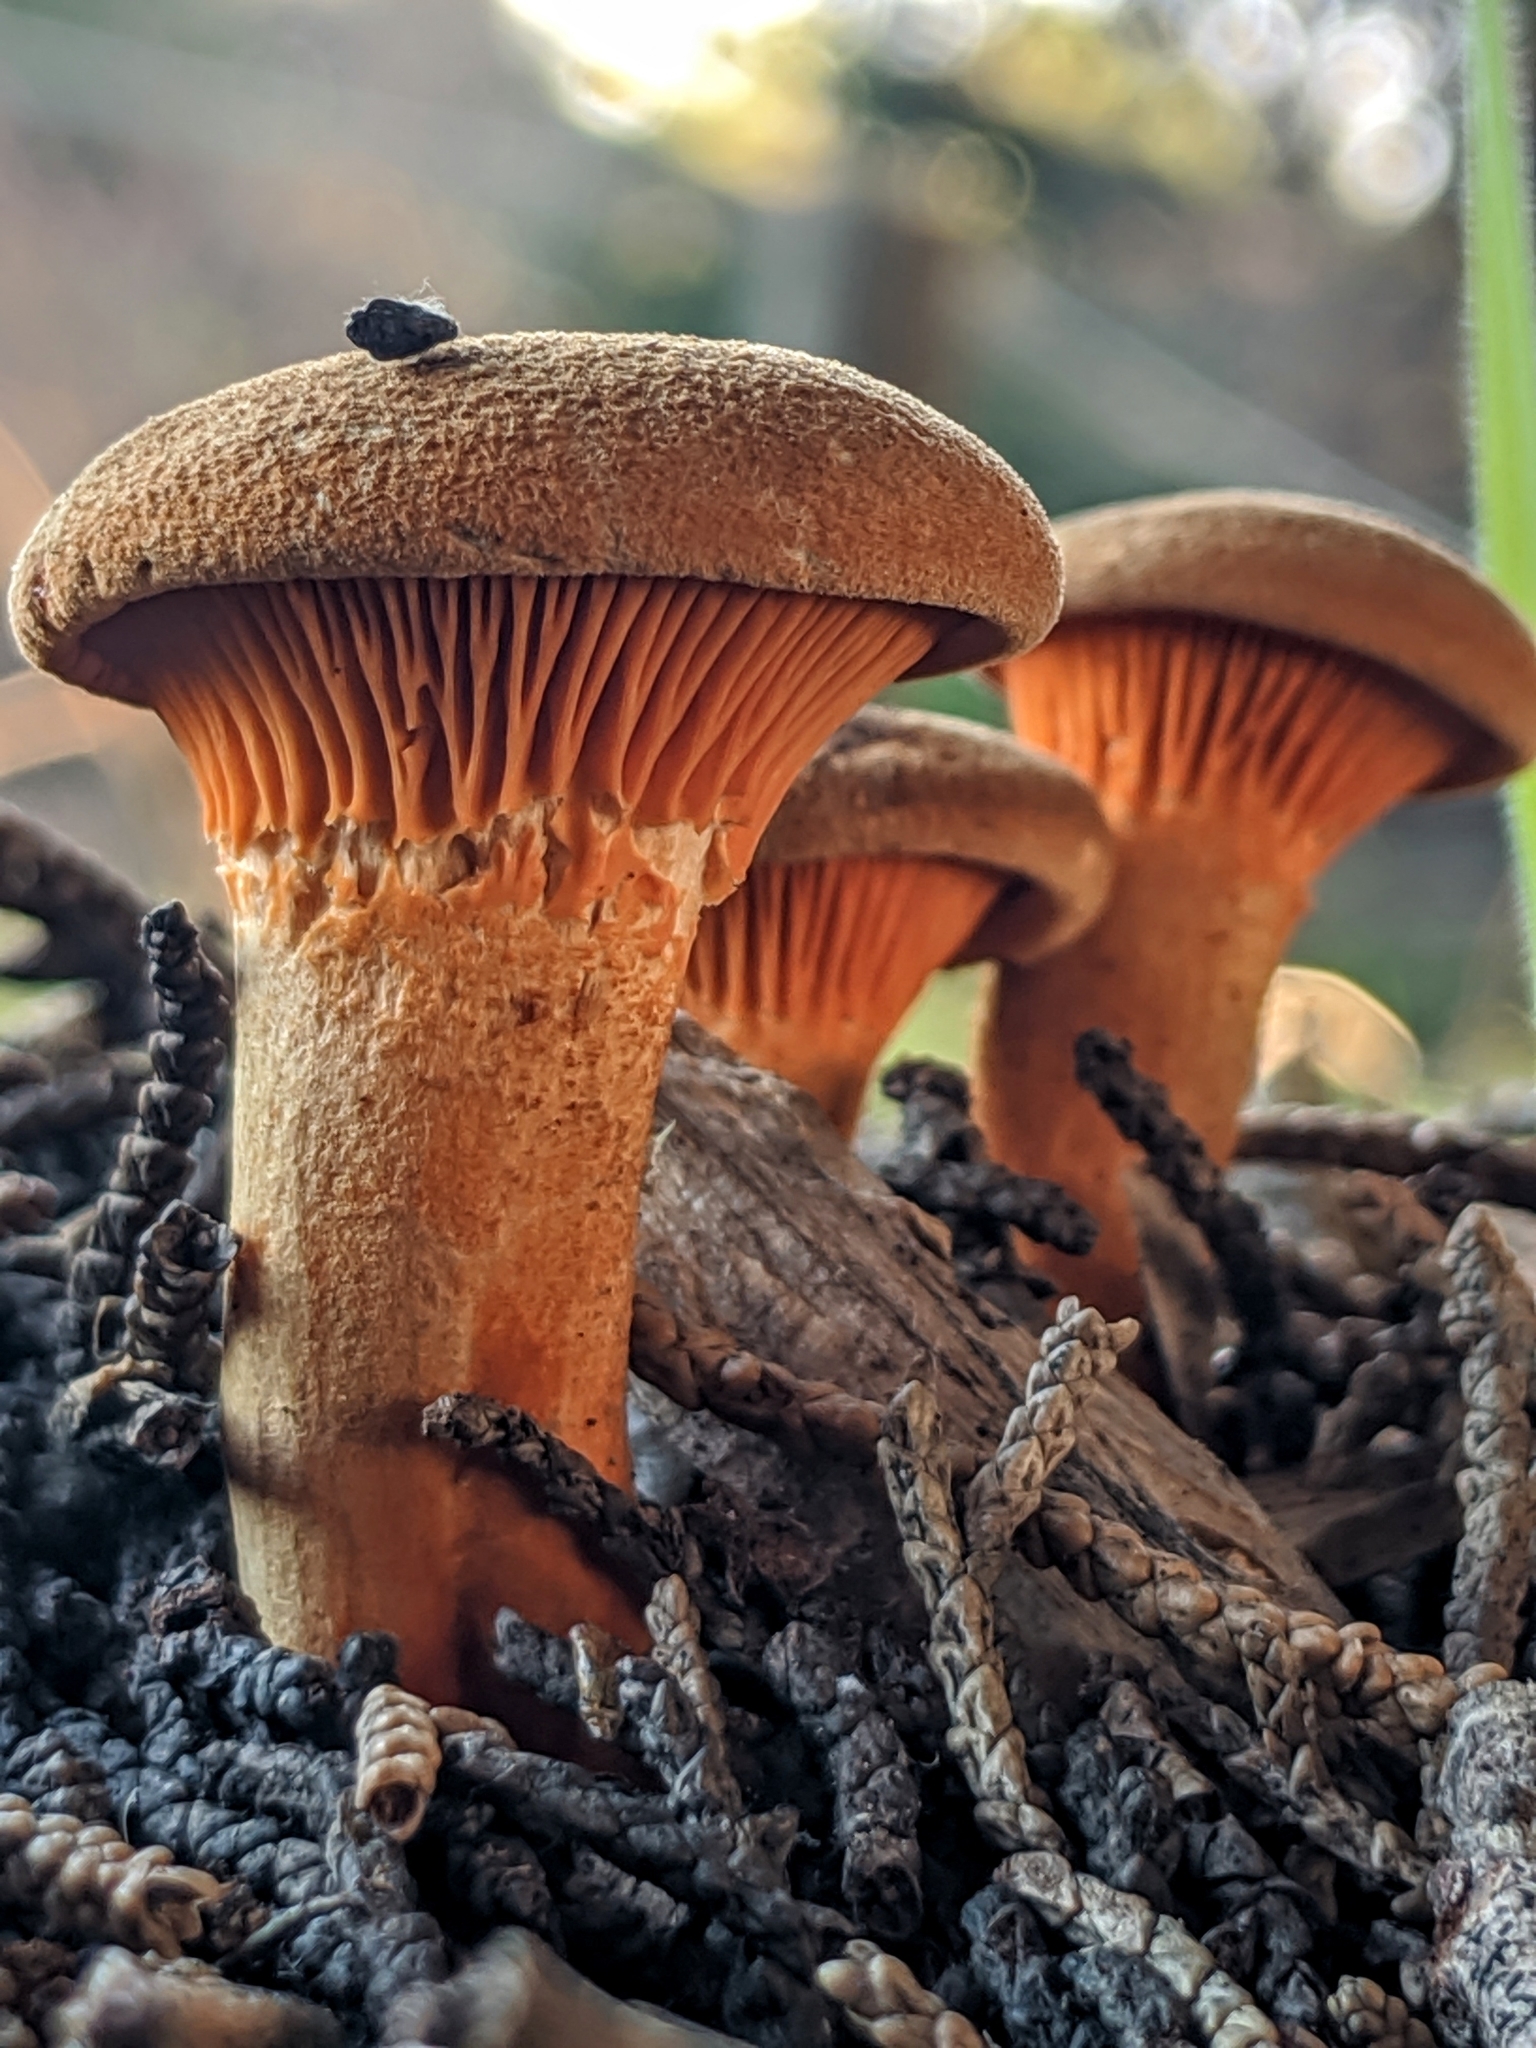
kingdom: Fungi
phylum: Basidiomycota
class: Agaricomycetes
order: Boletales
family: Hygrophoropsidaceae
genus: Hygrophoropsis
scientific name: Hygrophoropsis aurantiaca
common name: False chanterelle
